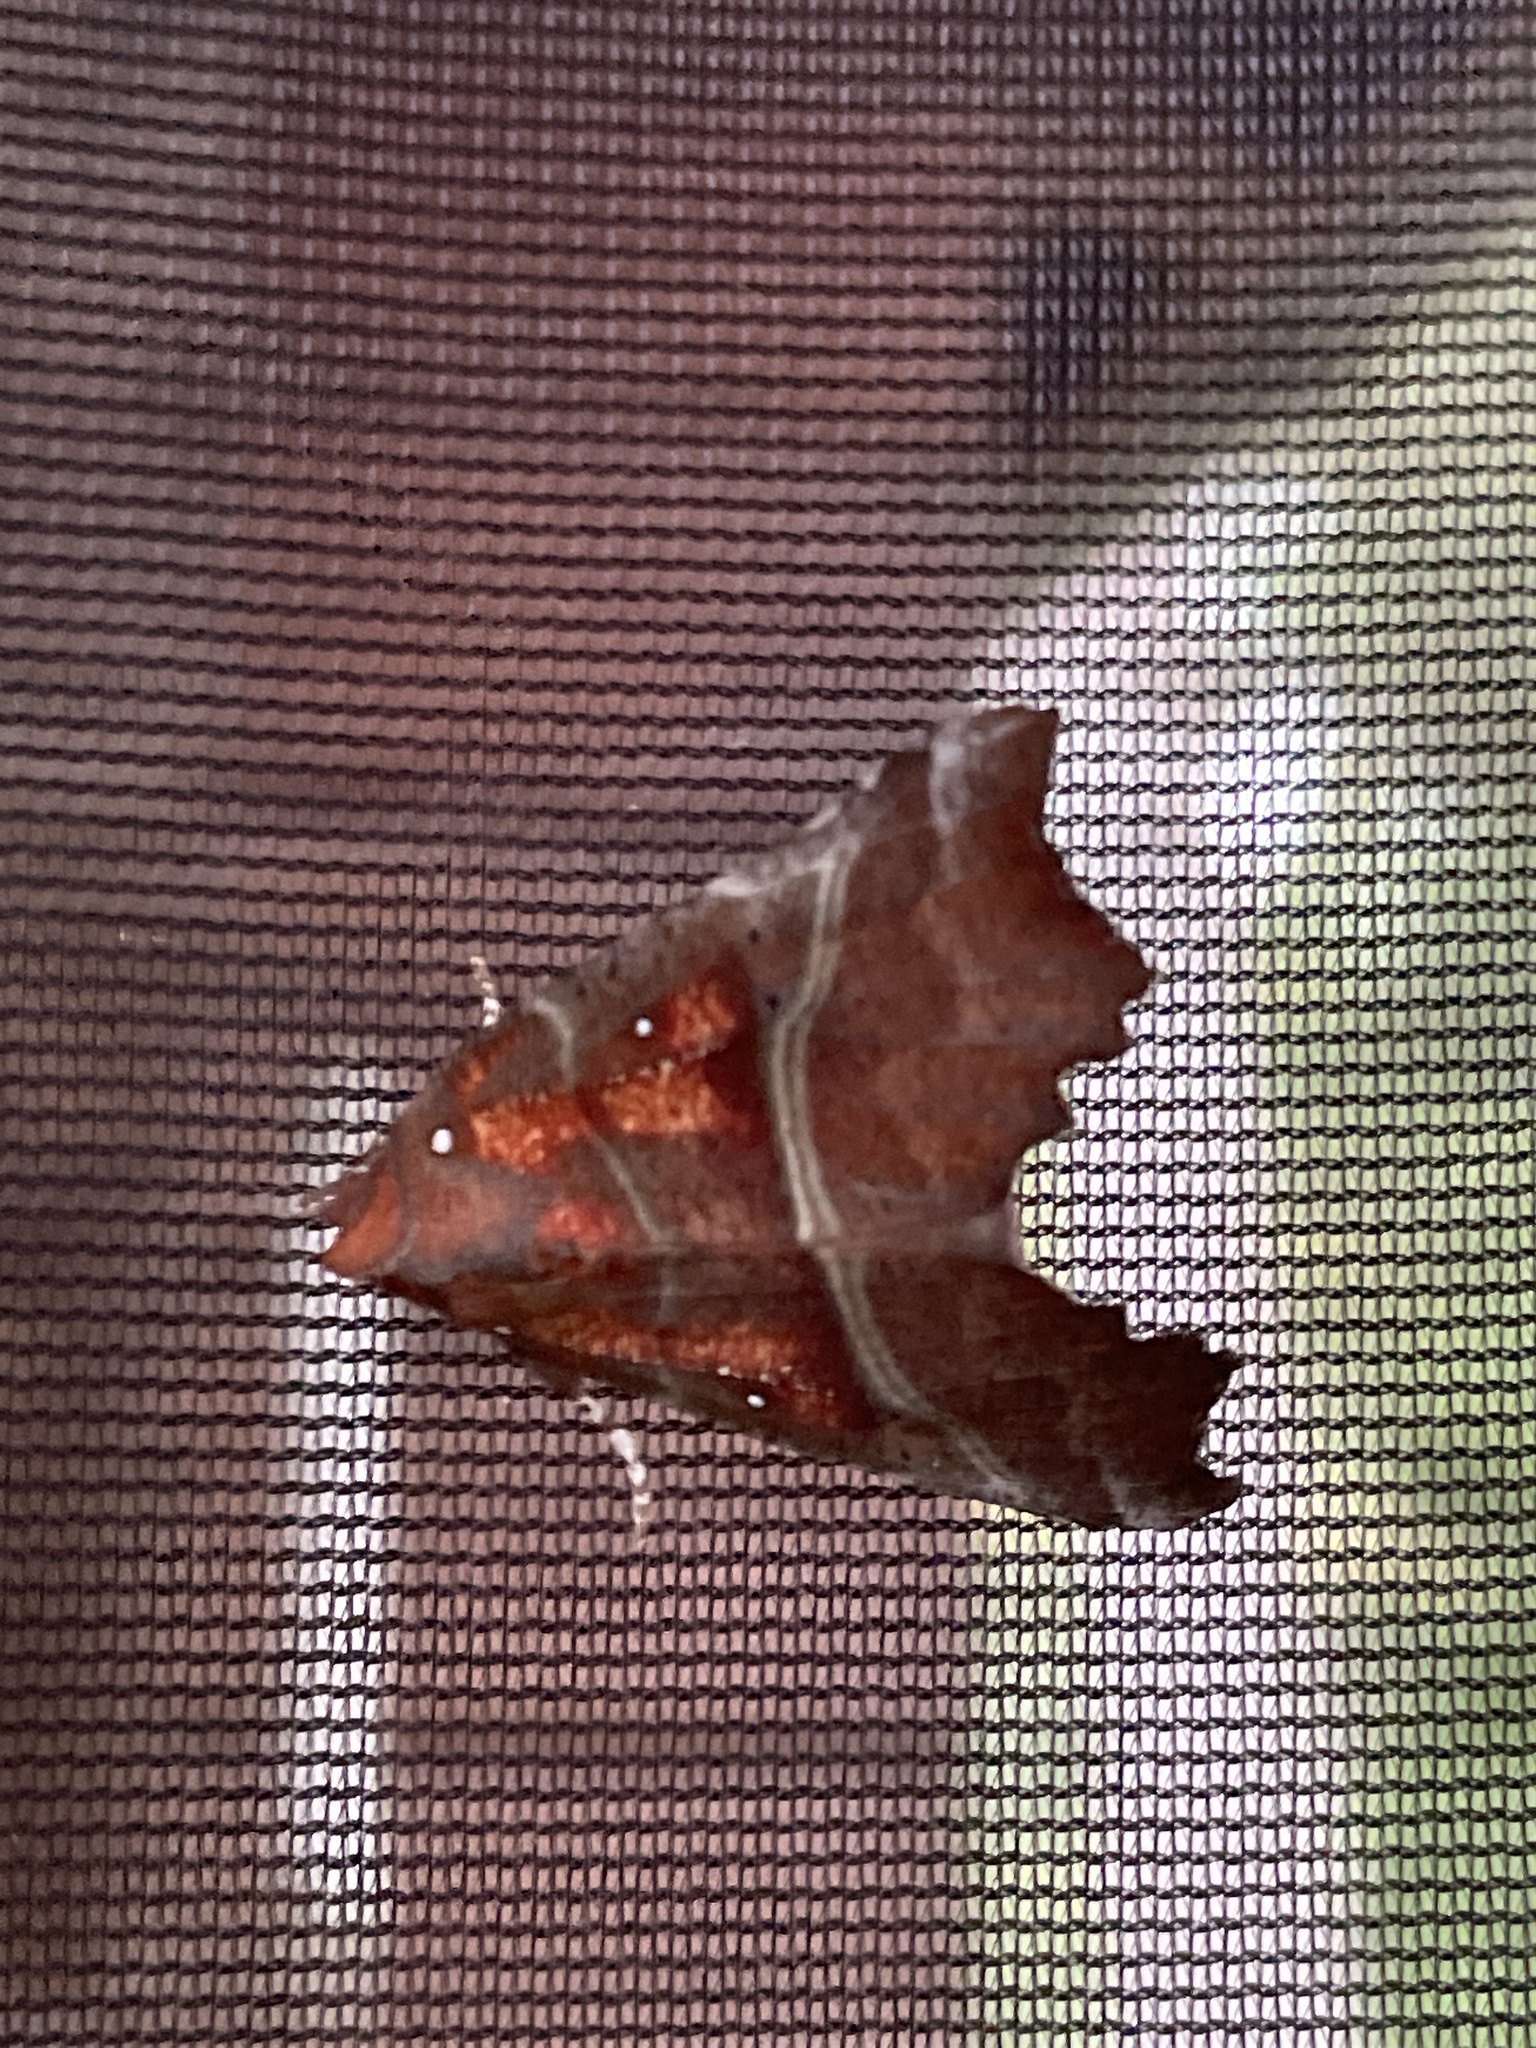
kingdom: Animalia
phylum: Arthropoda
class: Insecta
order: Lepidoptera
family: Erebidae
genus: Scoliopteryx
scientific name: Scoliopteryx libatrix
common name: Herald
